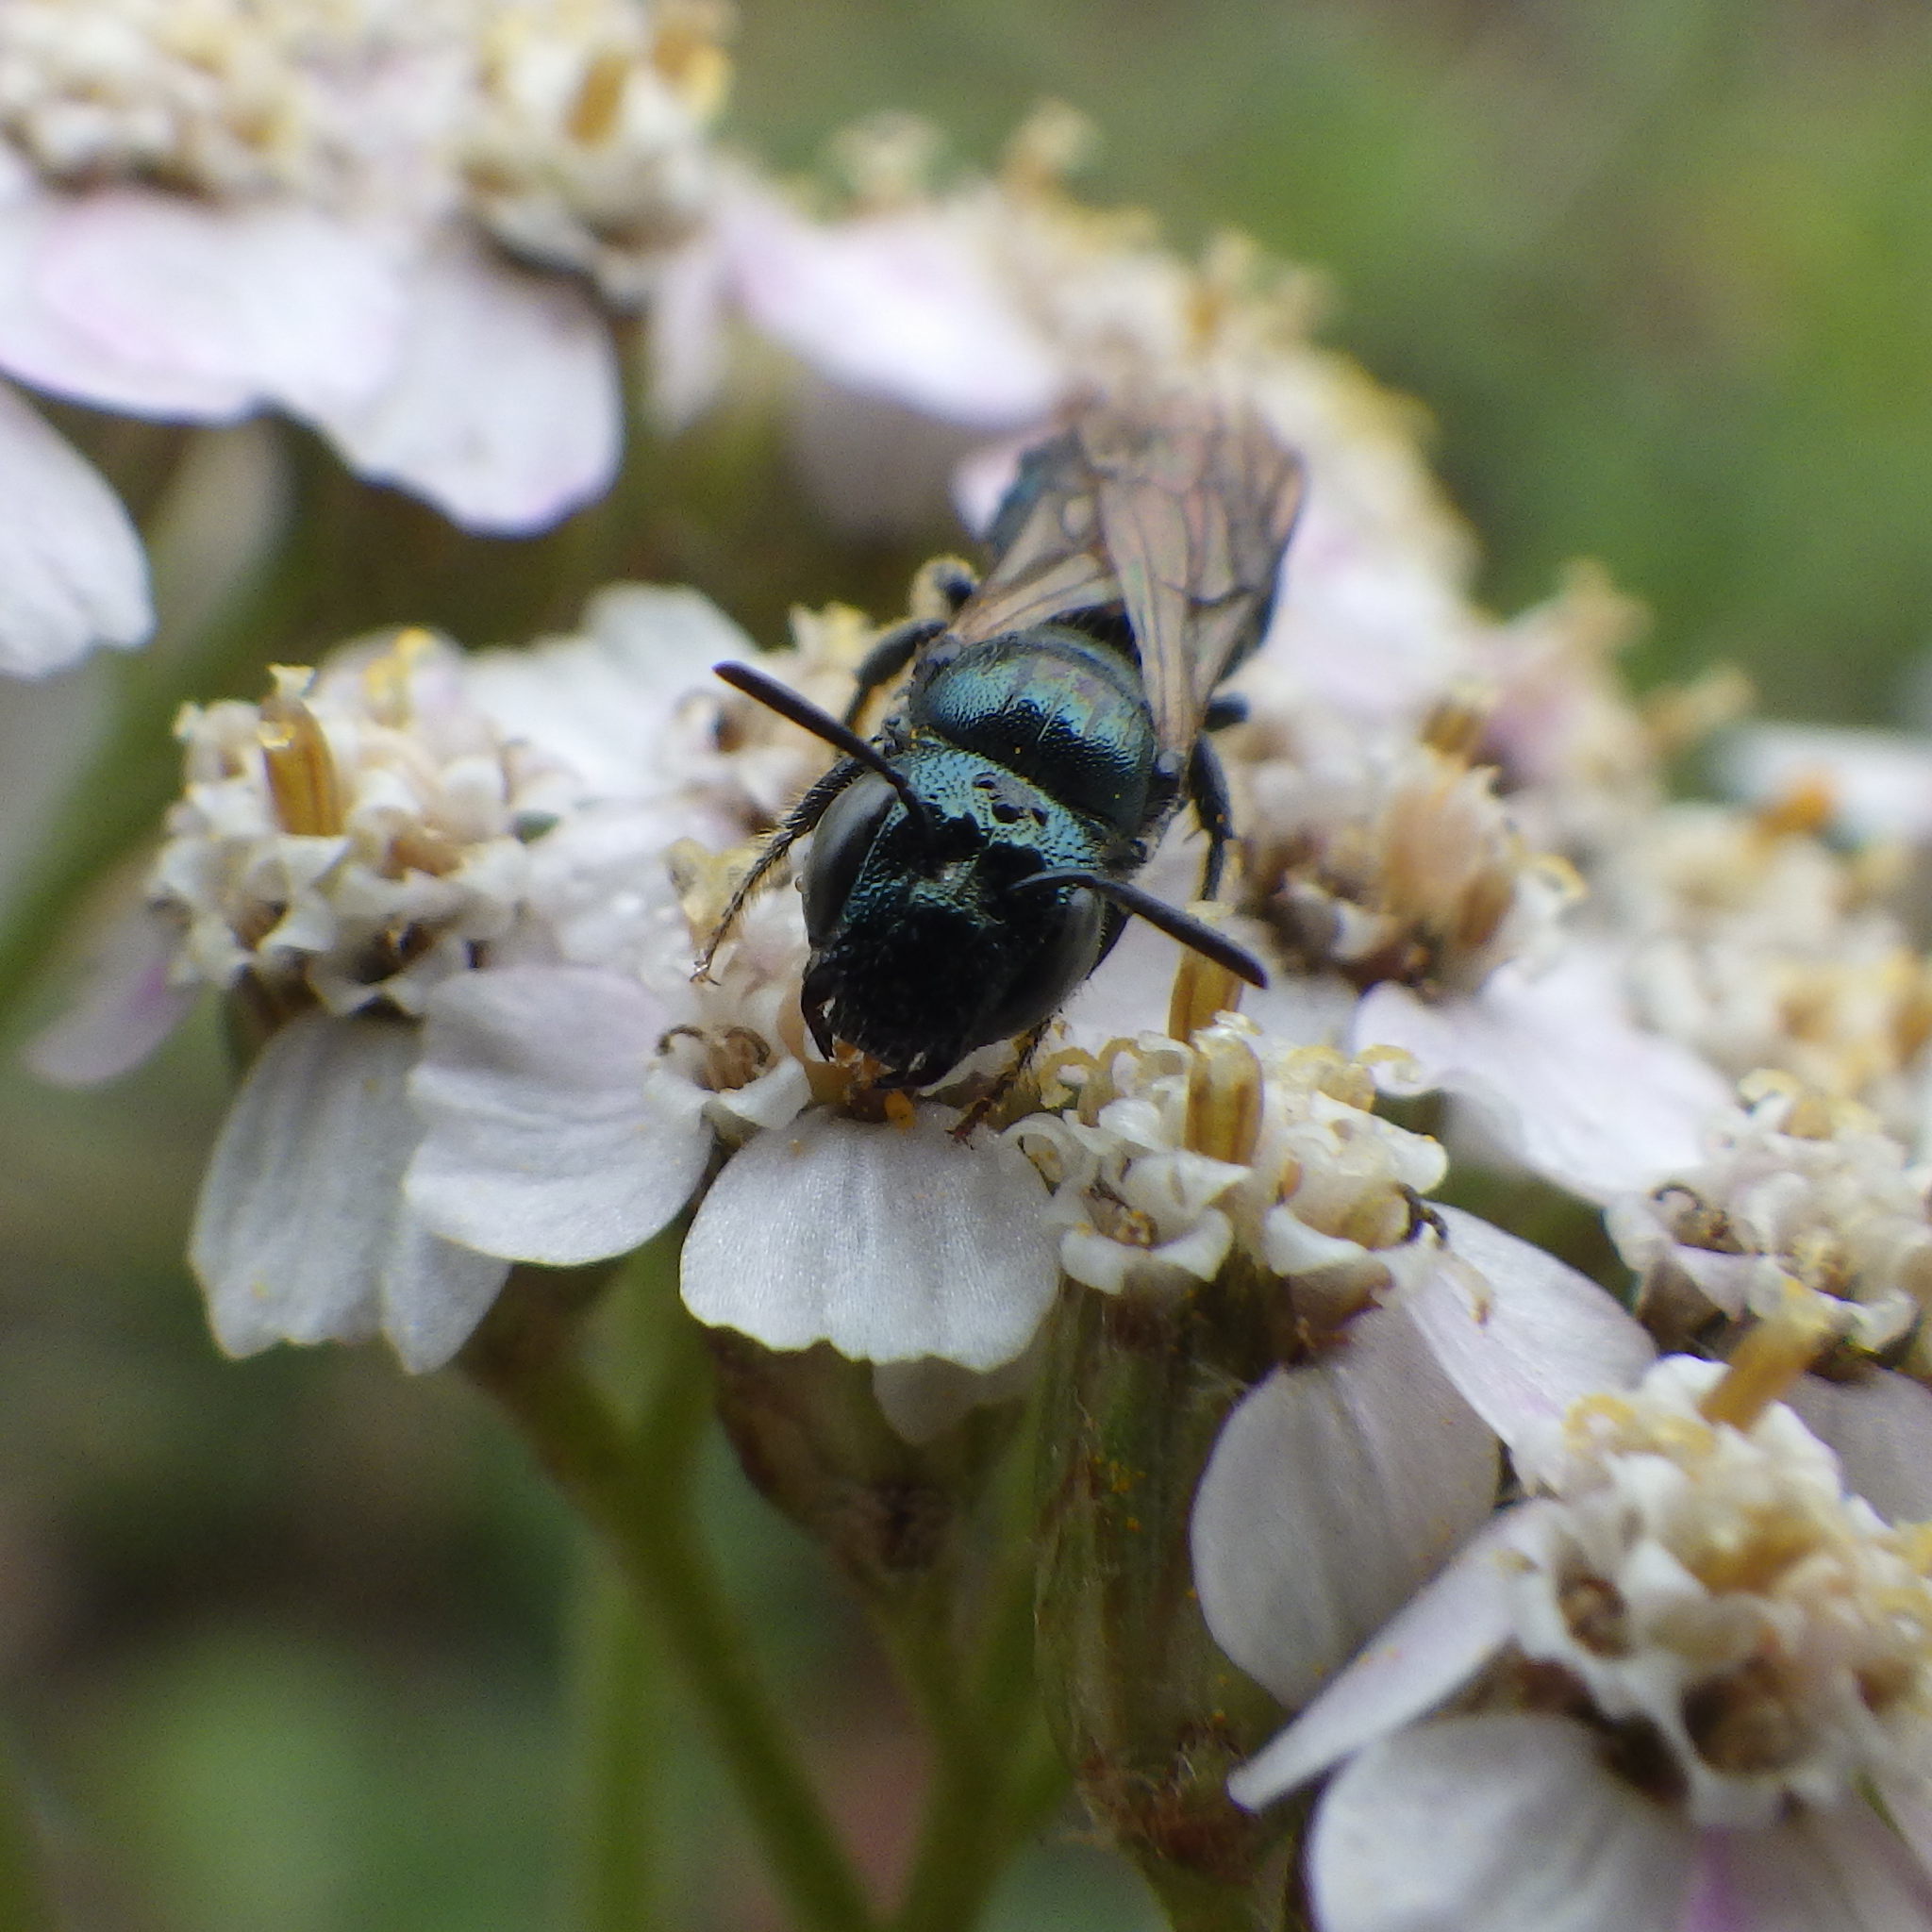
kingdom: Animalia
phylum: Arthropoda
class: Insecta
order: Hymenoptera
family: Apidae
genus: Ceratina
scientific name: Ceratina calcarata
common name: Spurred carpenter bee
